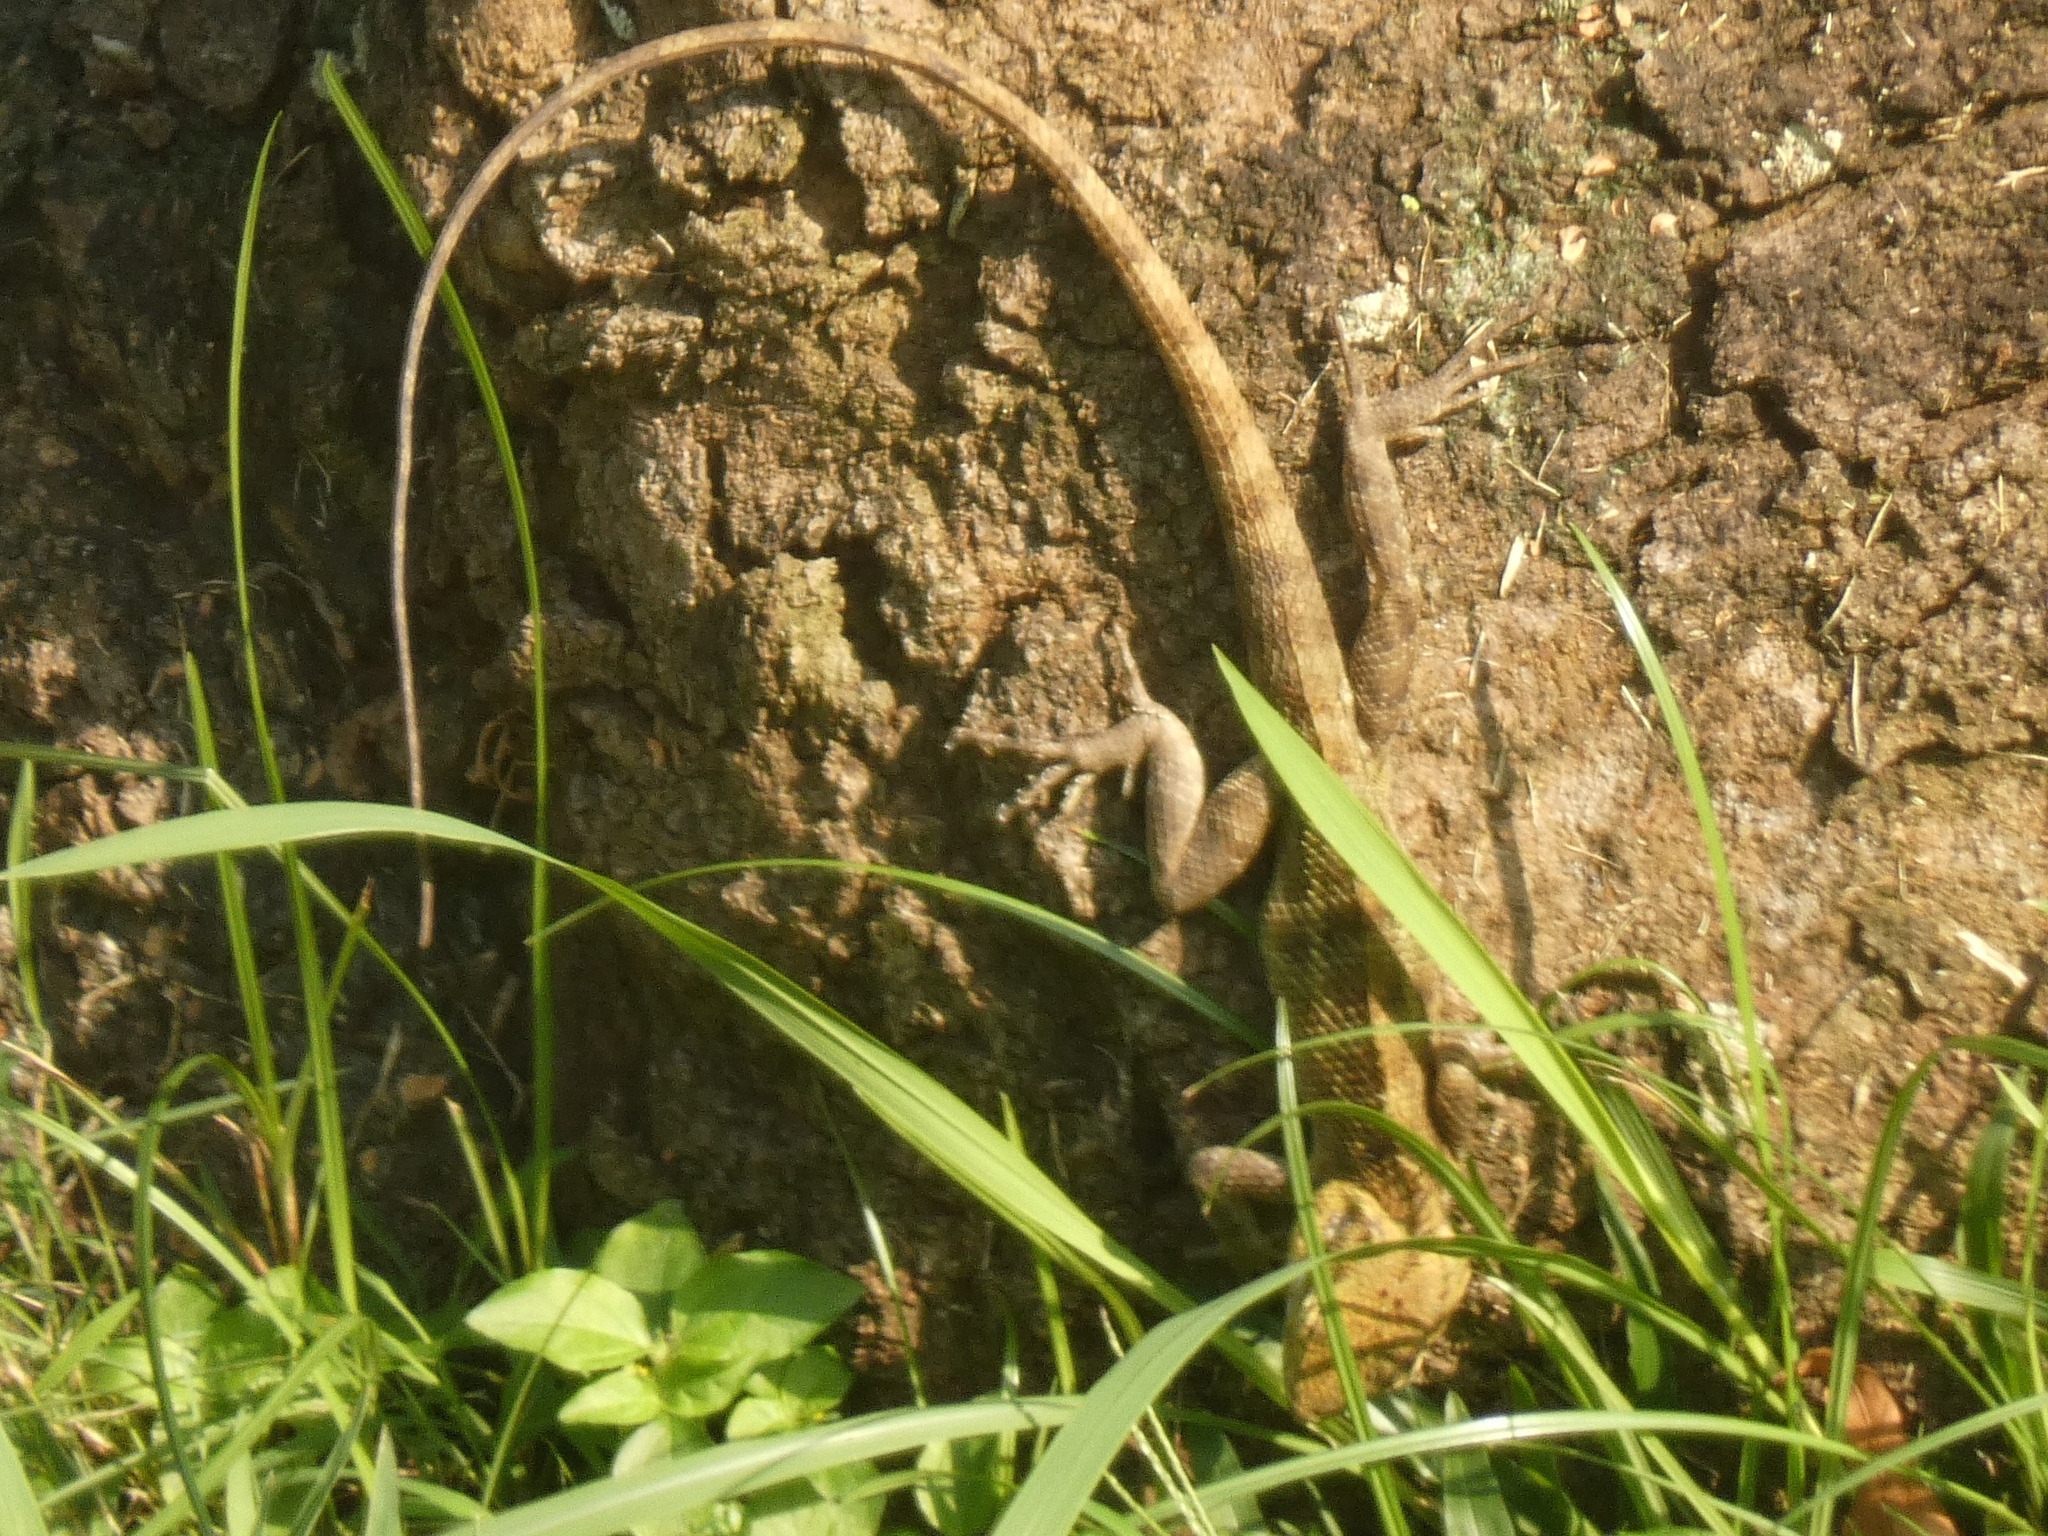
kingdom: Animalia
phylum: Chordata
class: Squamata
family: Agamidae
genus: Calotes
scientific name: Calotes versicolor
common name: Oriental garden lizard
